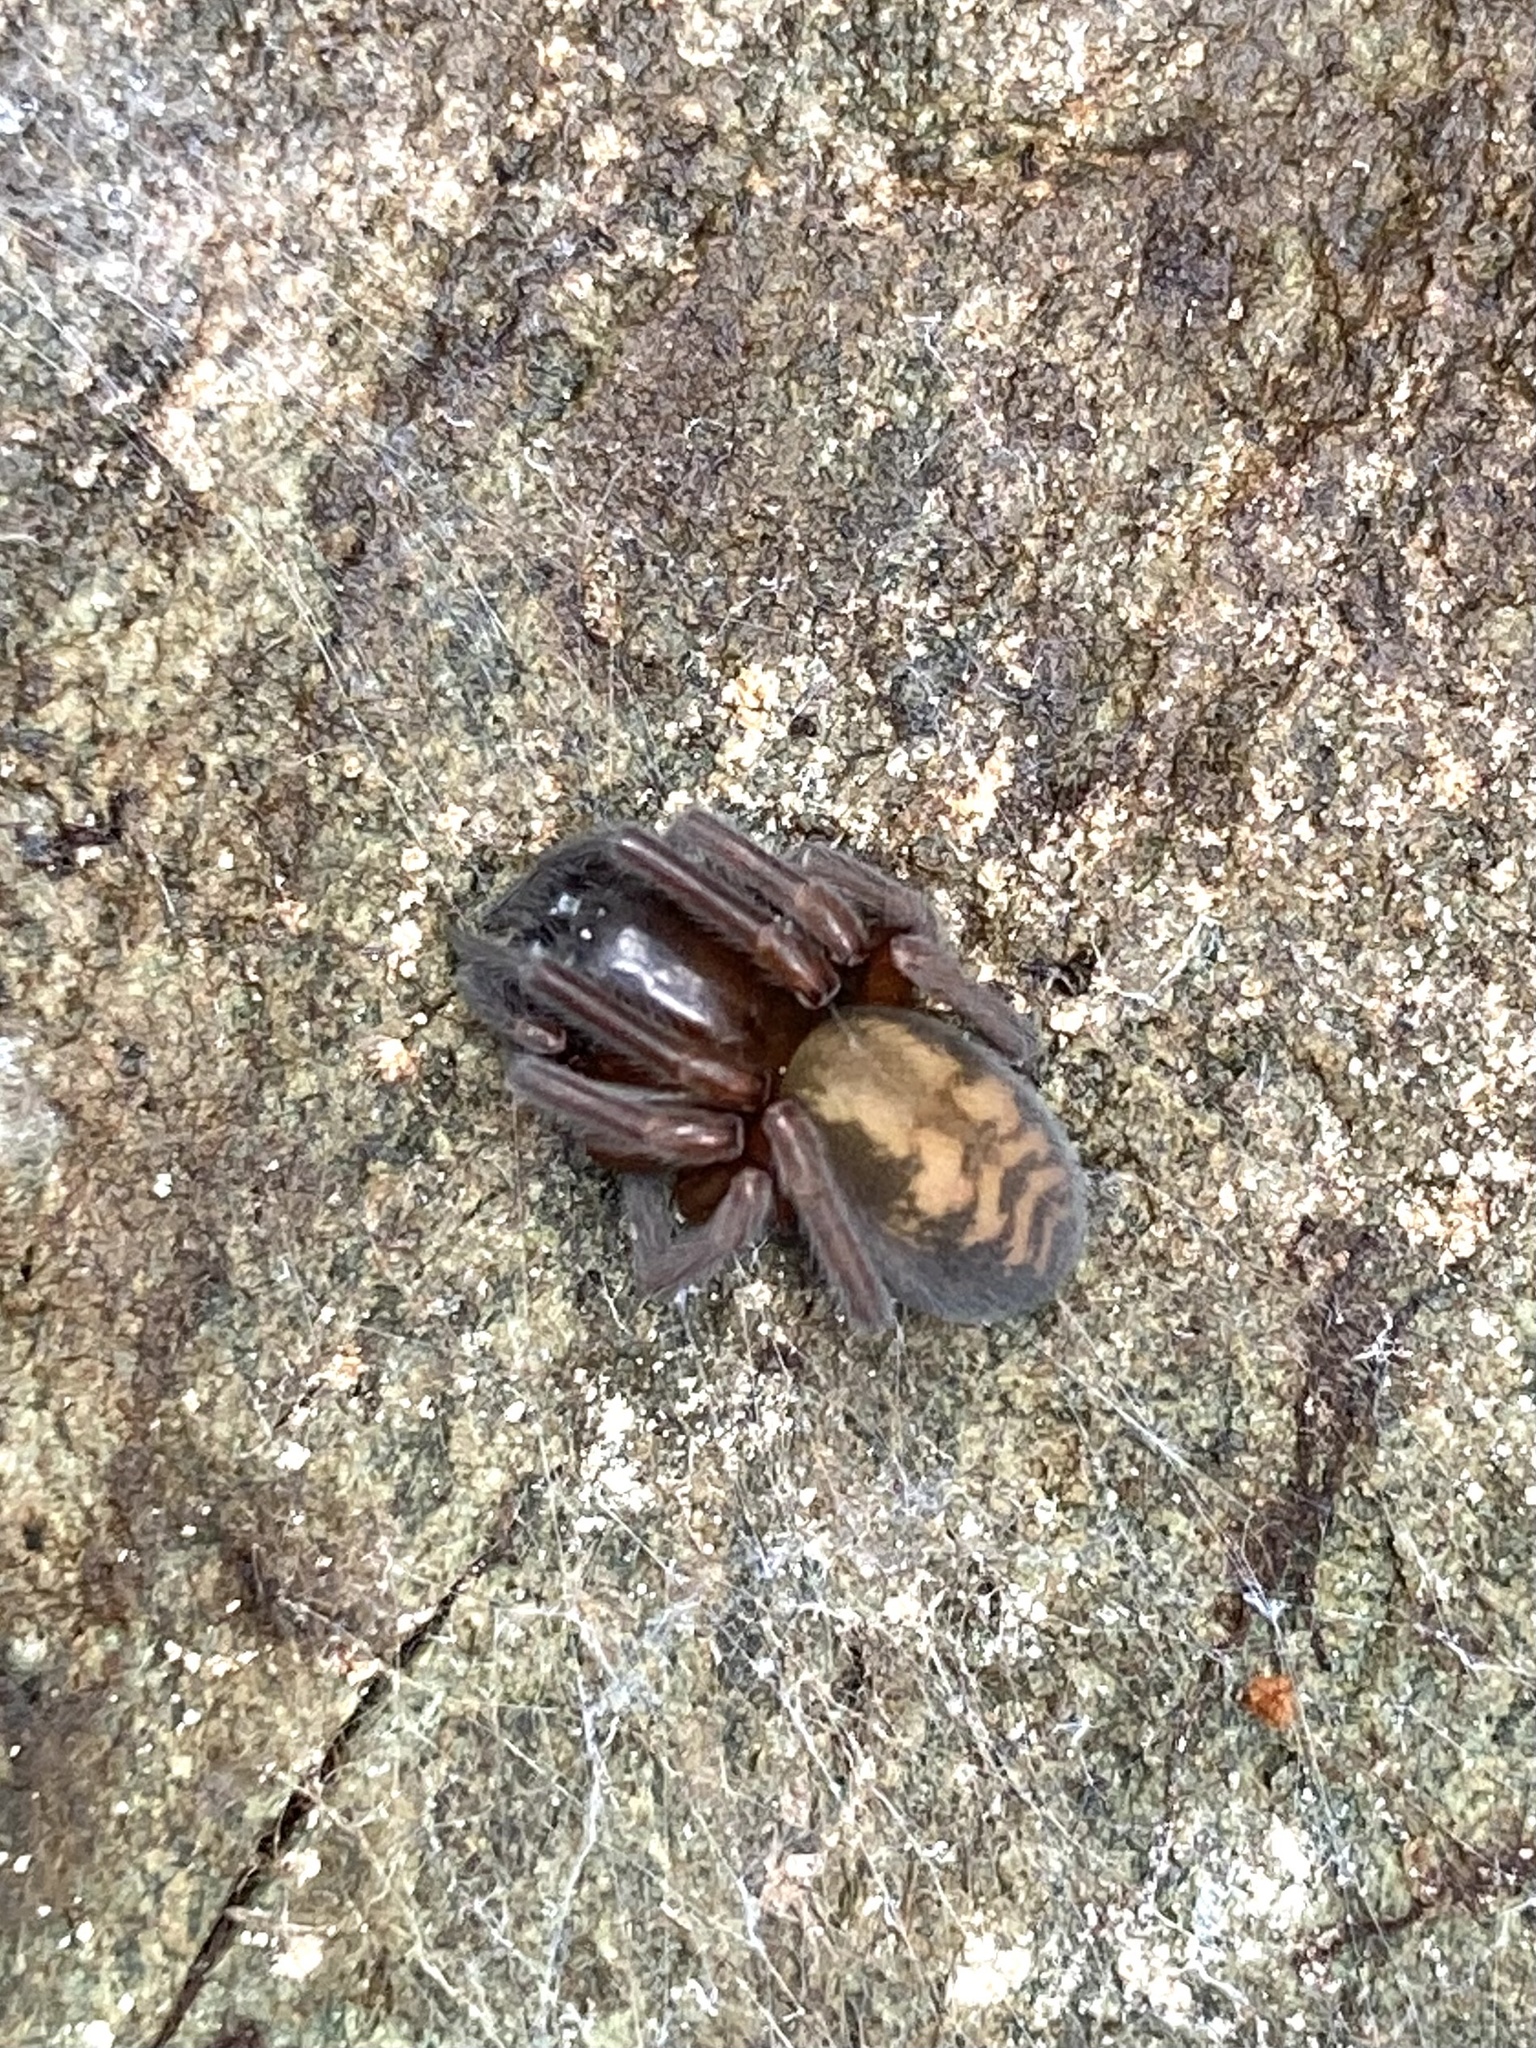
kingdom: Animalia
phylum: Arthropoda
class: Arachnida
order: Araneae
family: Amaurobiidae
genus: Callobius
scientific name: Callobius bennetti
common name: Bennett's laceweaver
